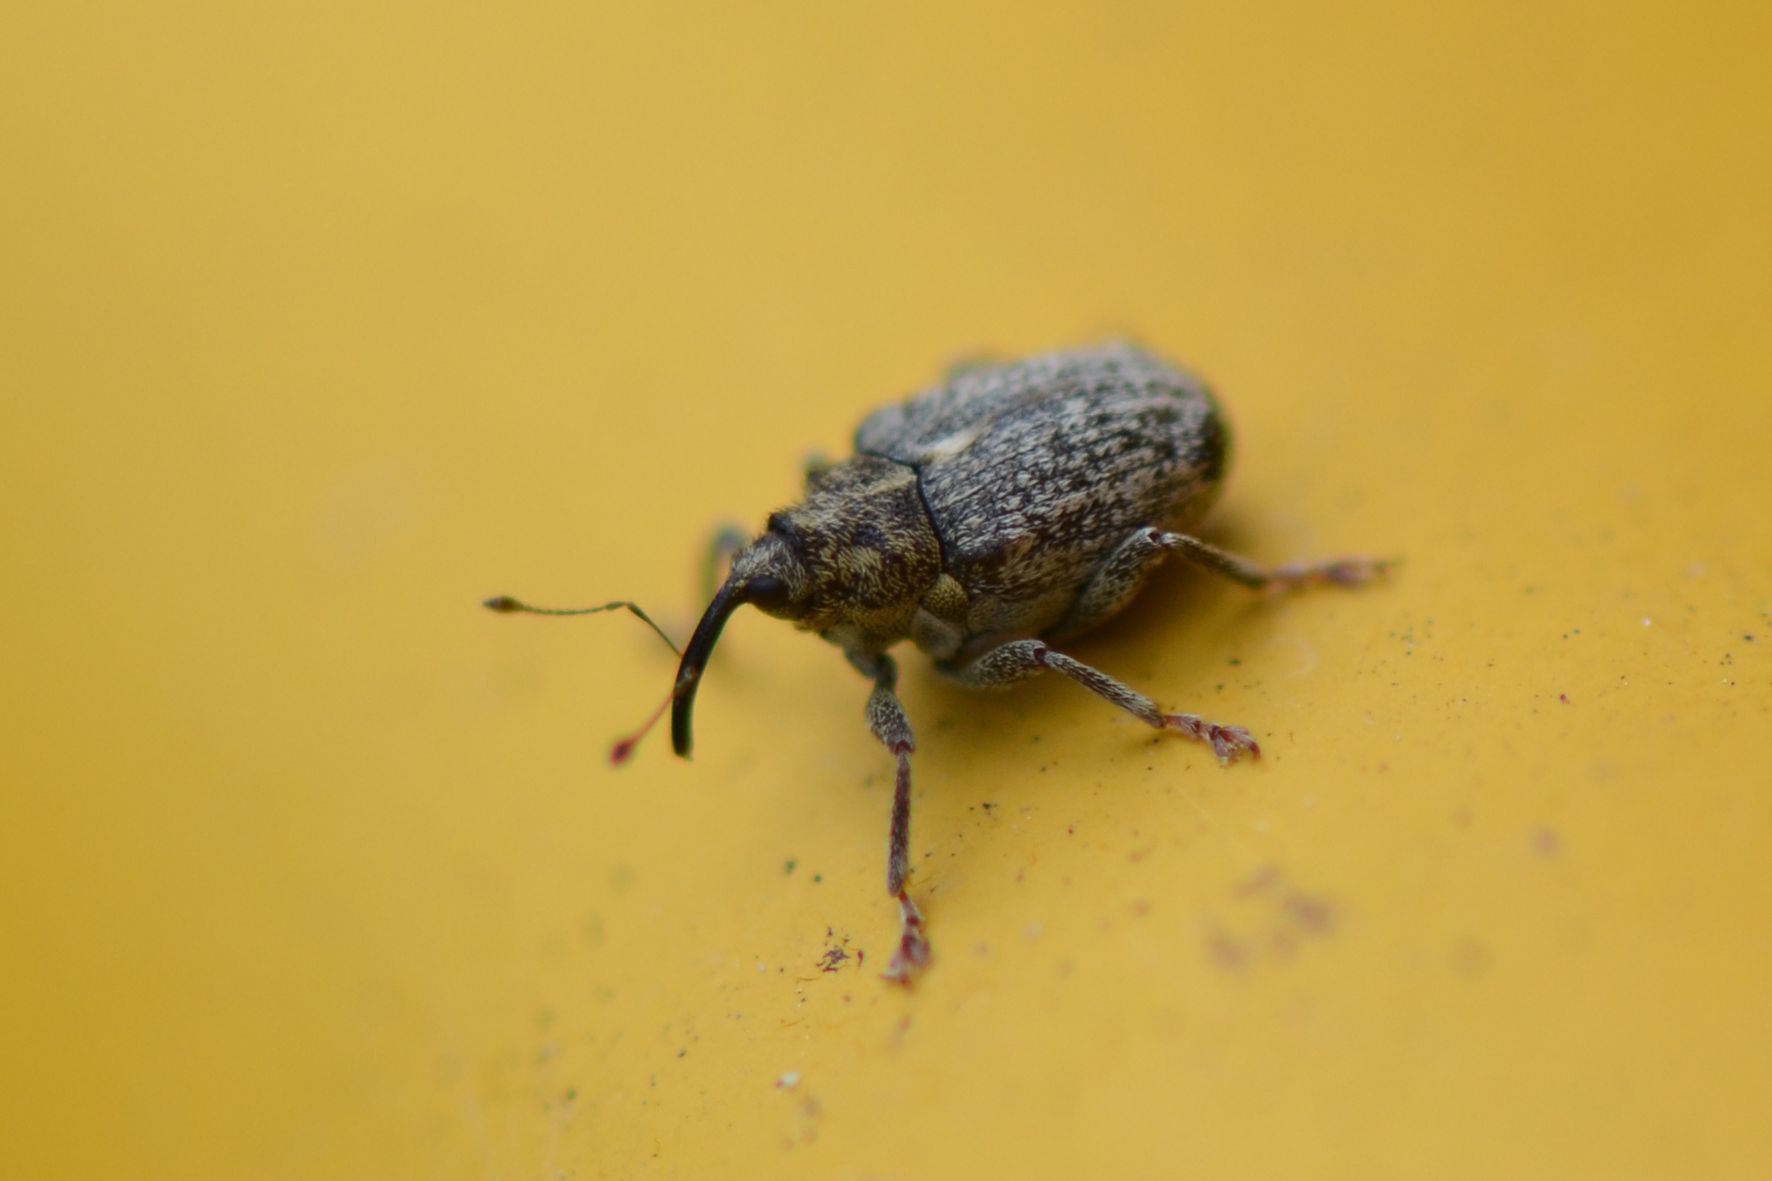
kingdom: Animalia
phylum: Arthropoda
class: Insecta
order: Coleoptera
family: Curculionidae
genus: Ceutorhynchus
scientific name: Ceutorhynchus pallidactylus
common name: Cabbage stem weavil
